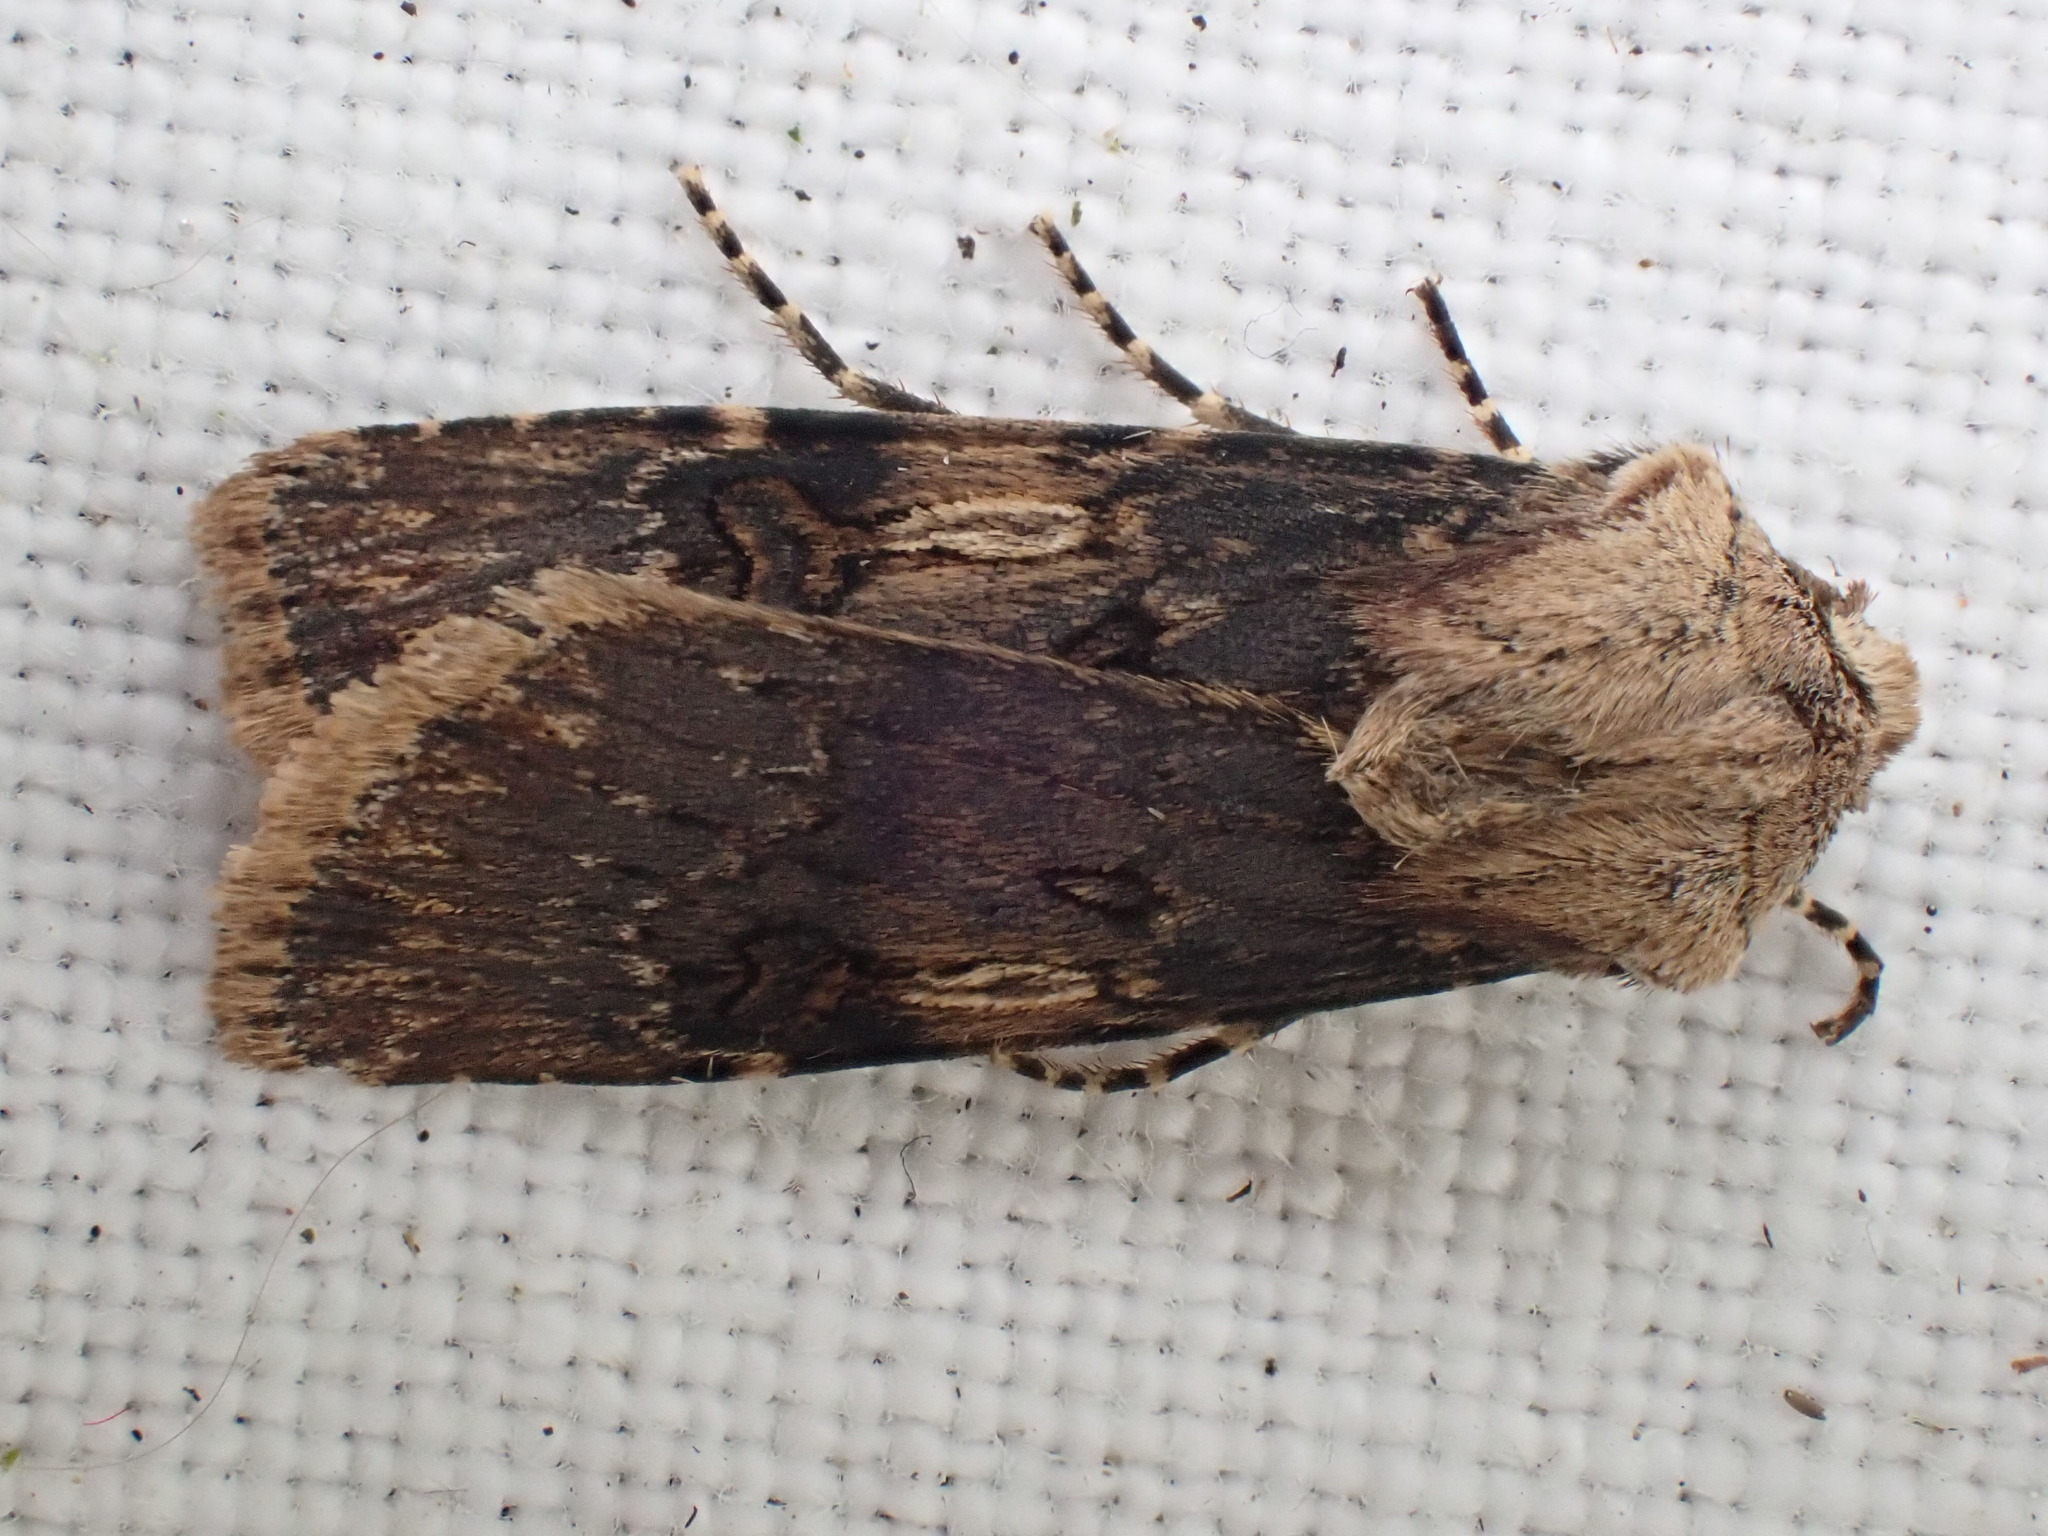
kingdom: Animalia
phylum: Arthropoda
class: Insecta
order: Lepidoptera
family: Noctuidae
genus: Agrotis
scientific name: Agrotis puta
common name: Shuttle-shaped dart
